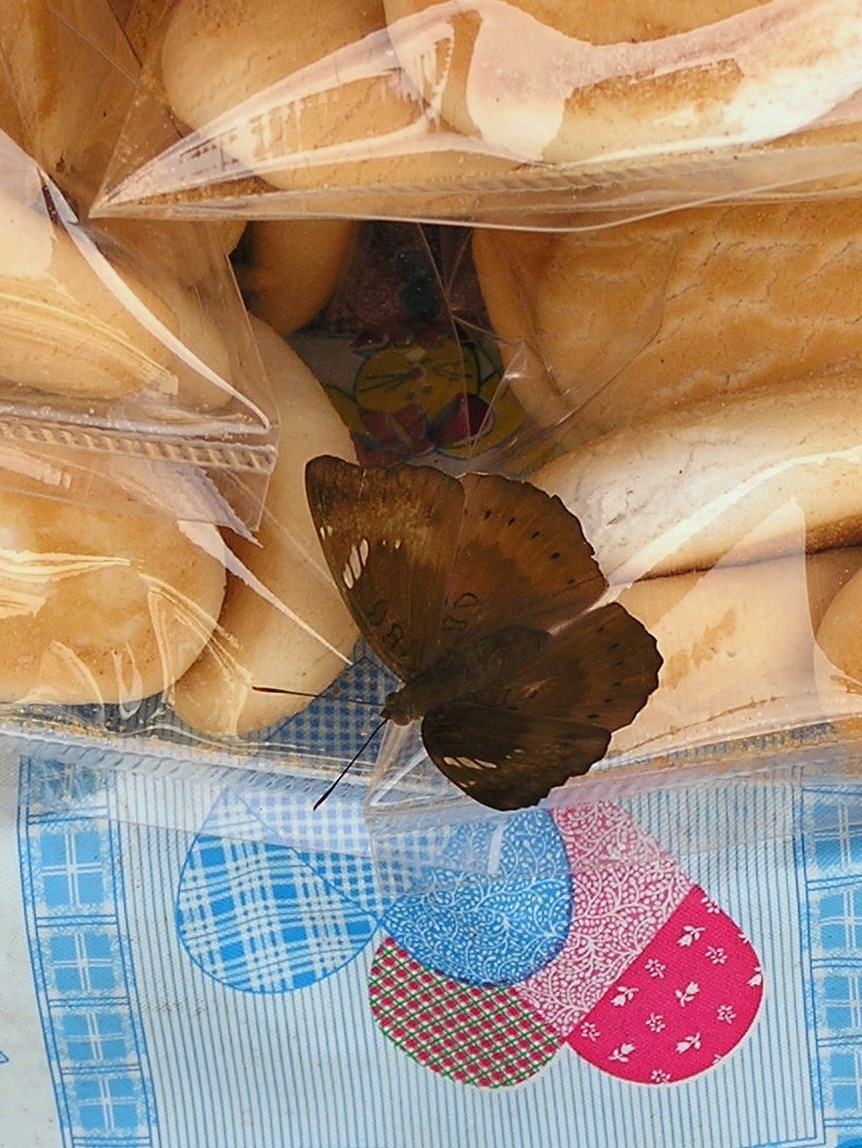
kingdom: Animalia
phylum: Arthropoda
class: Insecta
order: Lepidoptera
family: Nymphalidae
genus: Euthalia
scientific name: Euthalia aconthea
